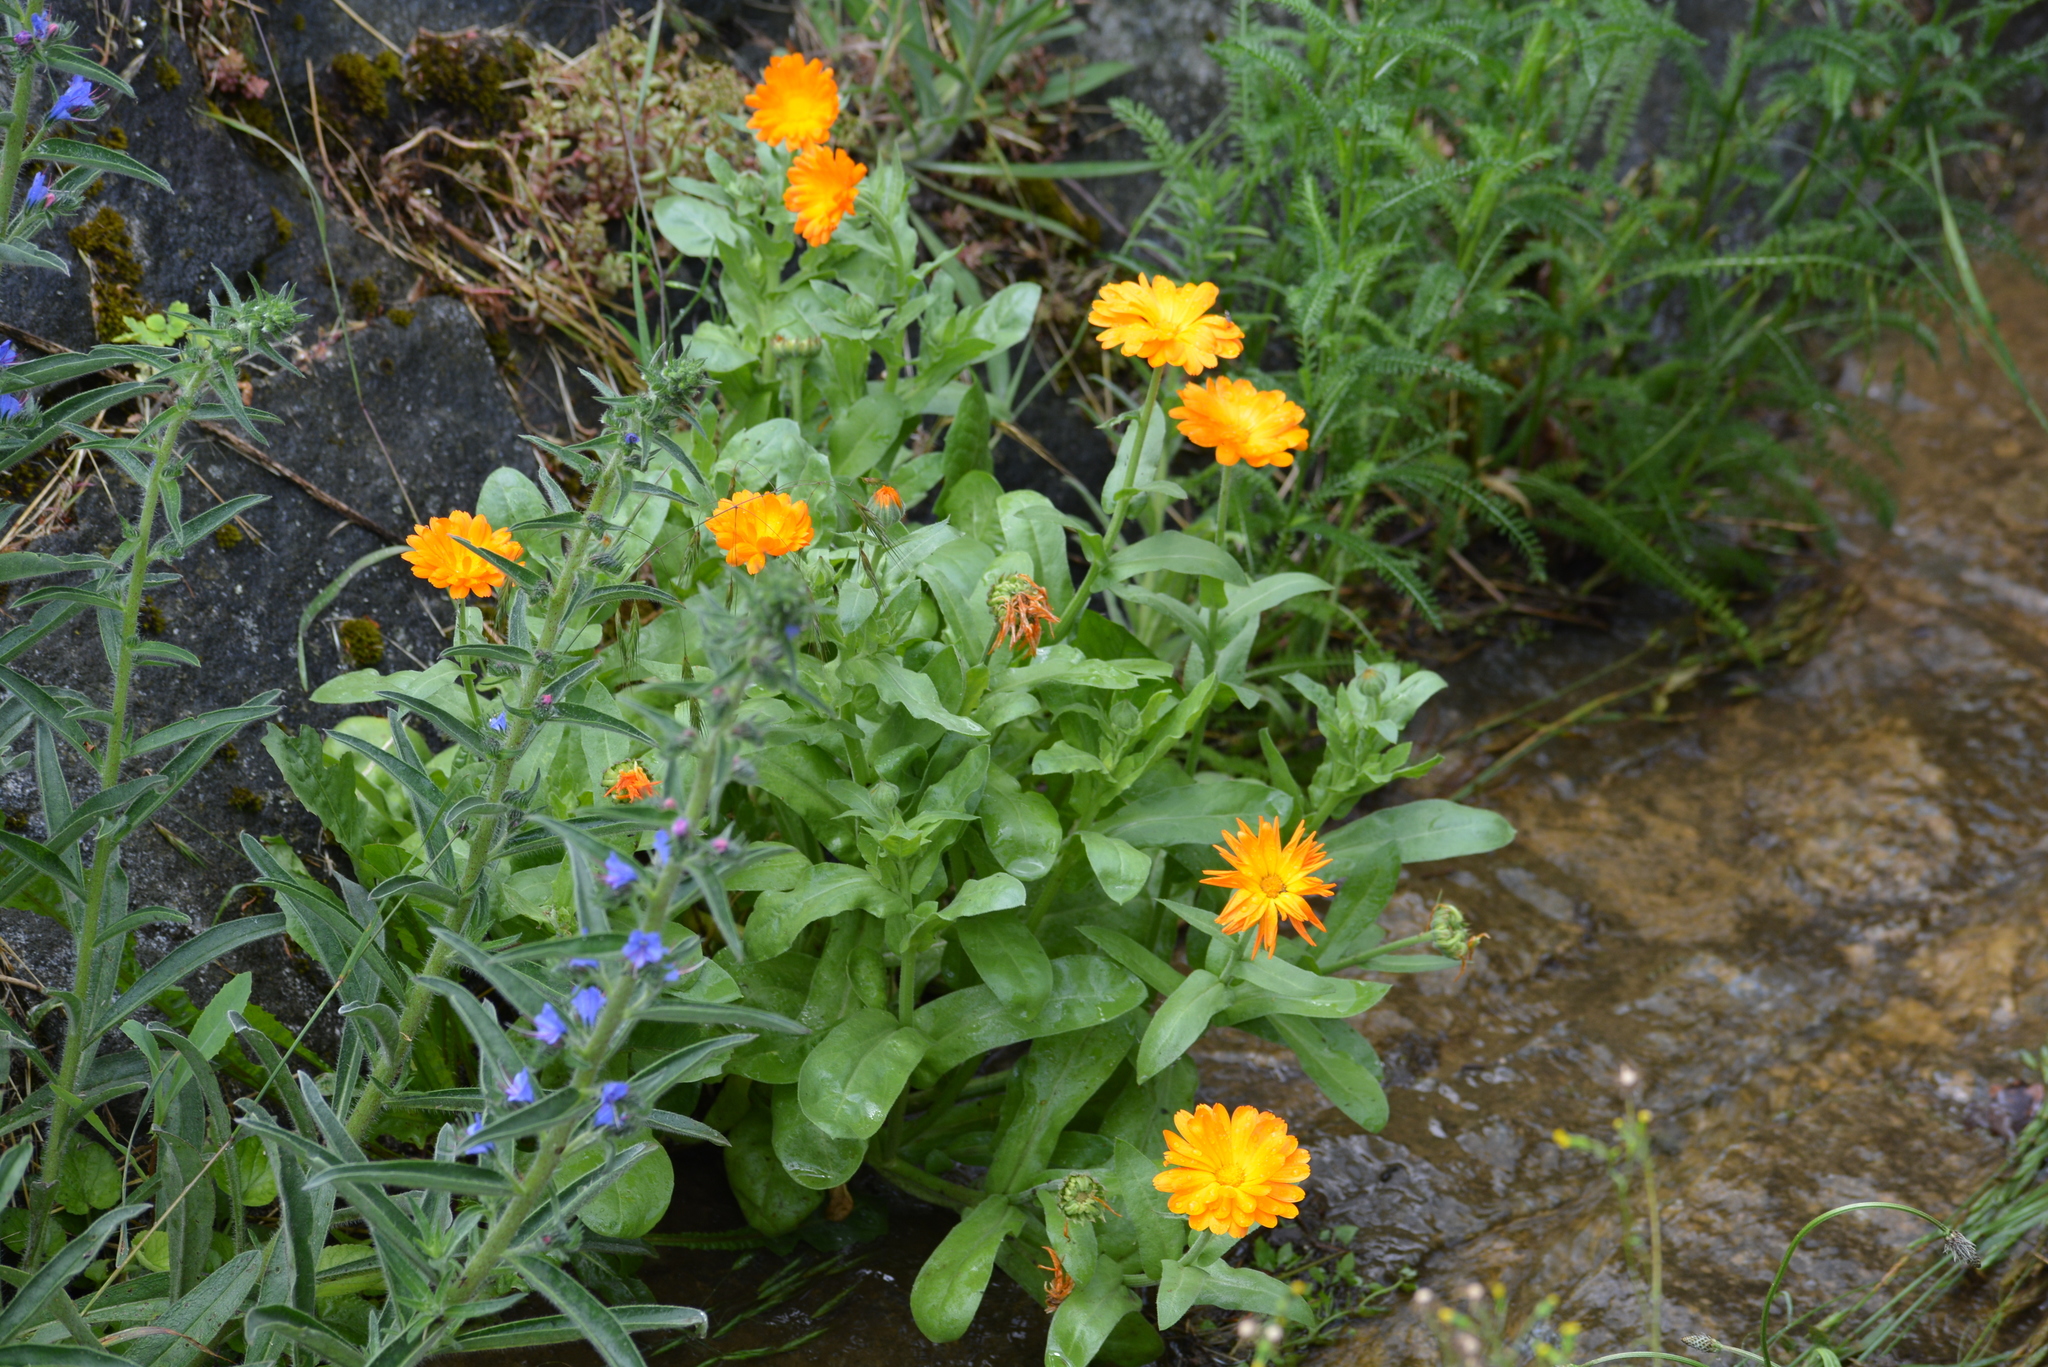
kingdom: Plantae
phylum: Tracheophyta
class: Magnoliopsida
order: Asterales
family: Asteraceae
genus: Calendula
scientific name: Calendula officinalis
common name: Pot marigold
